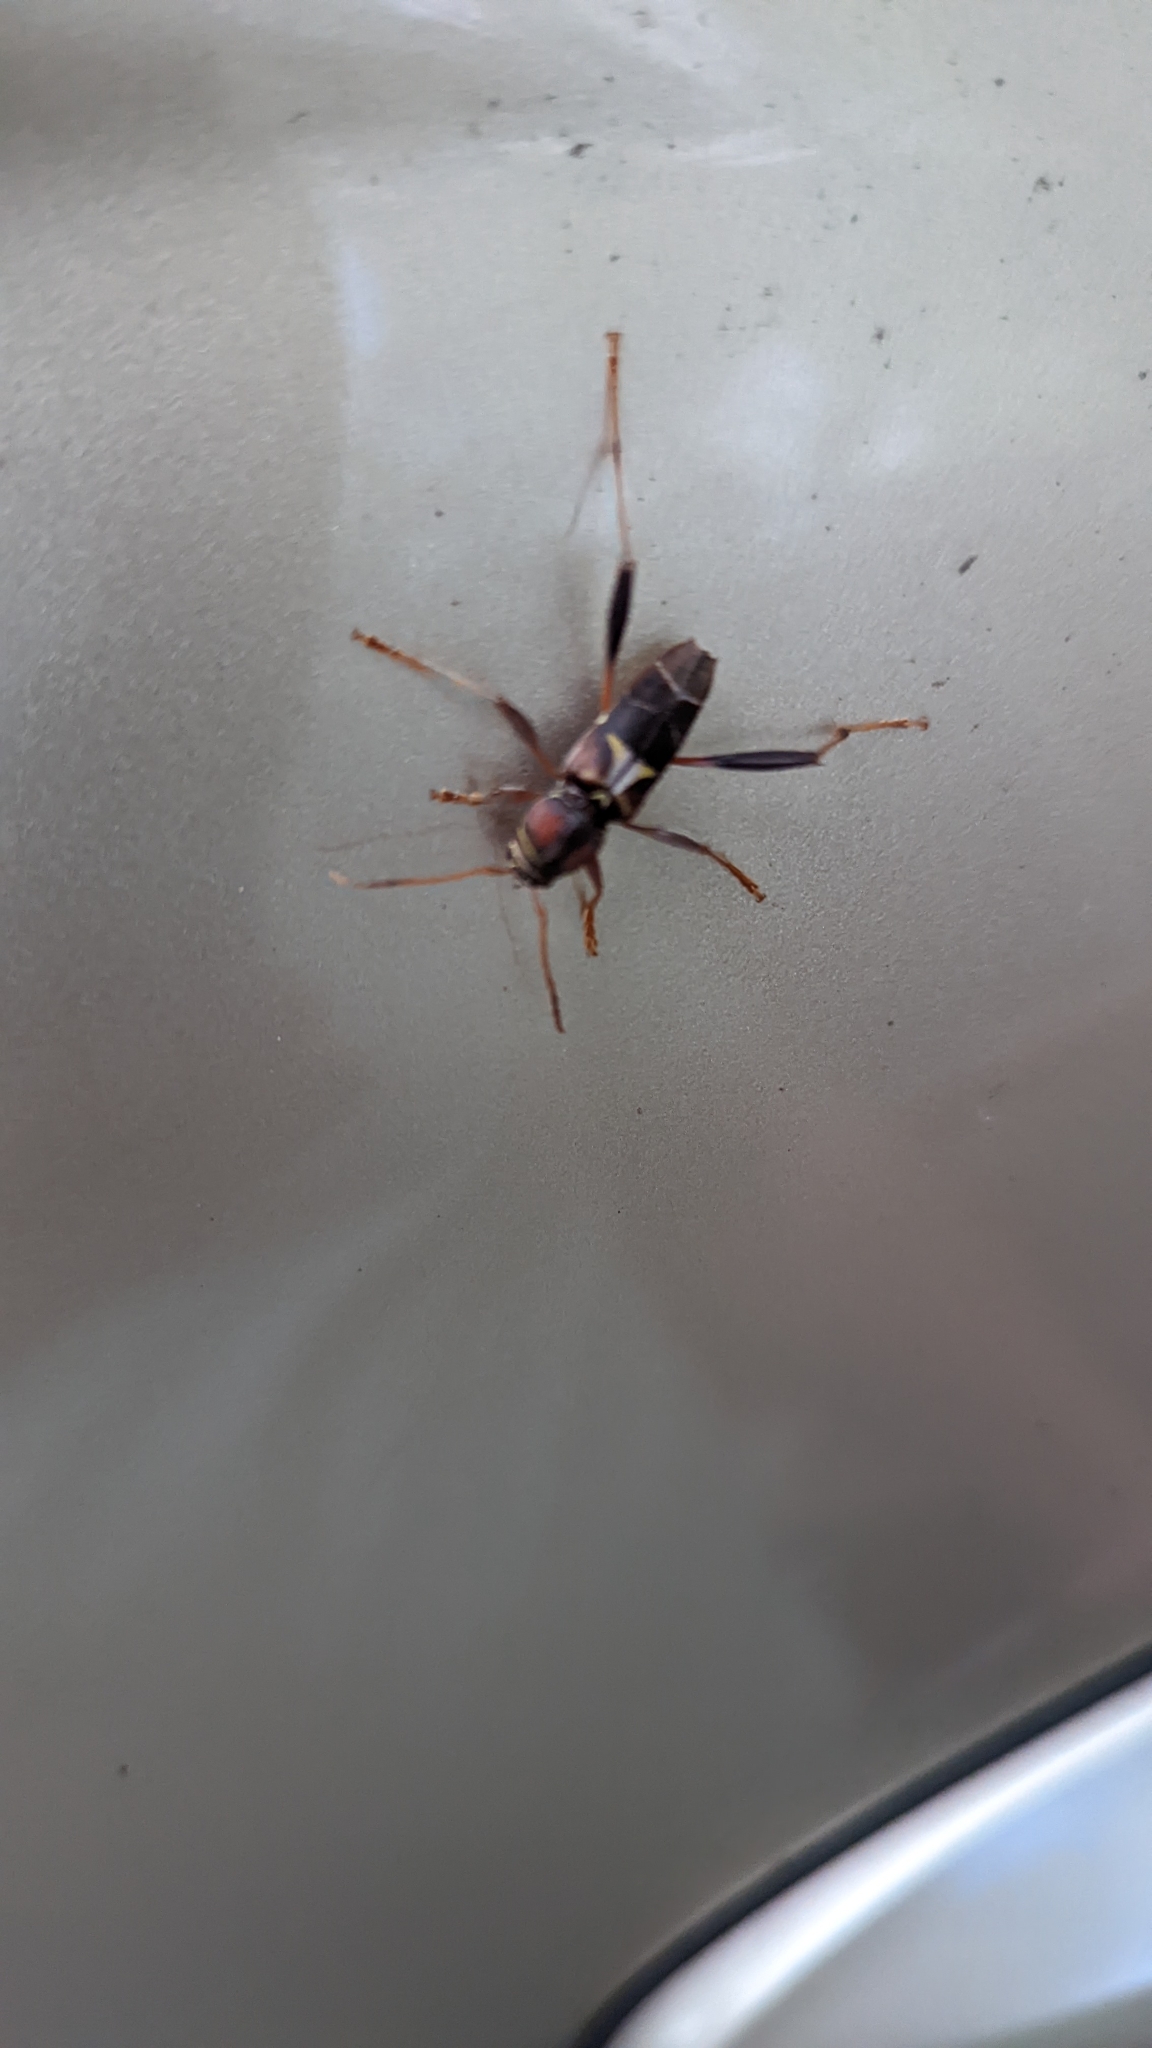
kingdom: Animalia
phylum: Arthropoda
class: Insecta
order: Coleoptera
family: Cerambycidae
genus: Neoclytus
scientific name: Neoclytus mucronatus
